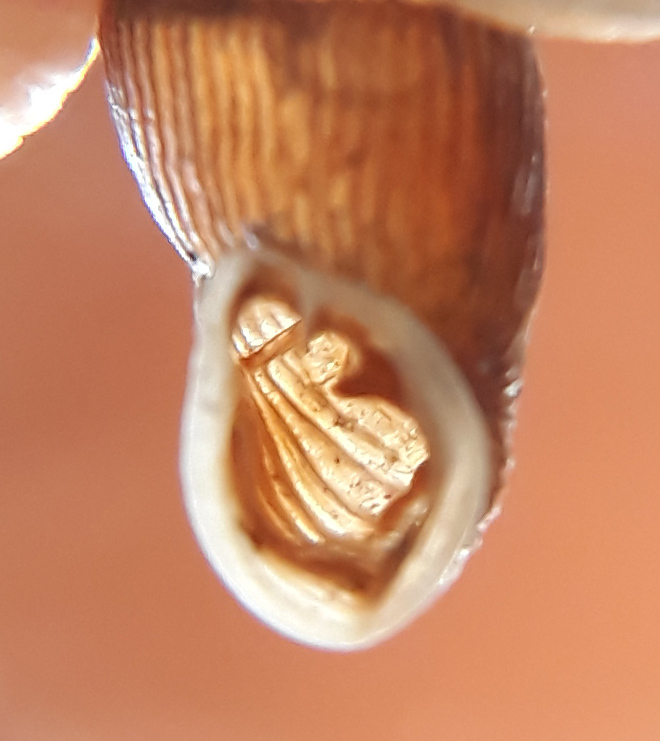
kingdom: Animalia
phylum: Mollusca
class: Gastropoda
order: Stylommatophora
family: Clausiliidae
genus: Strigillaria
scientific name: Strigillaria cana
